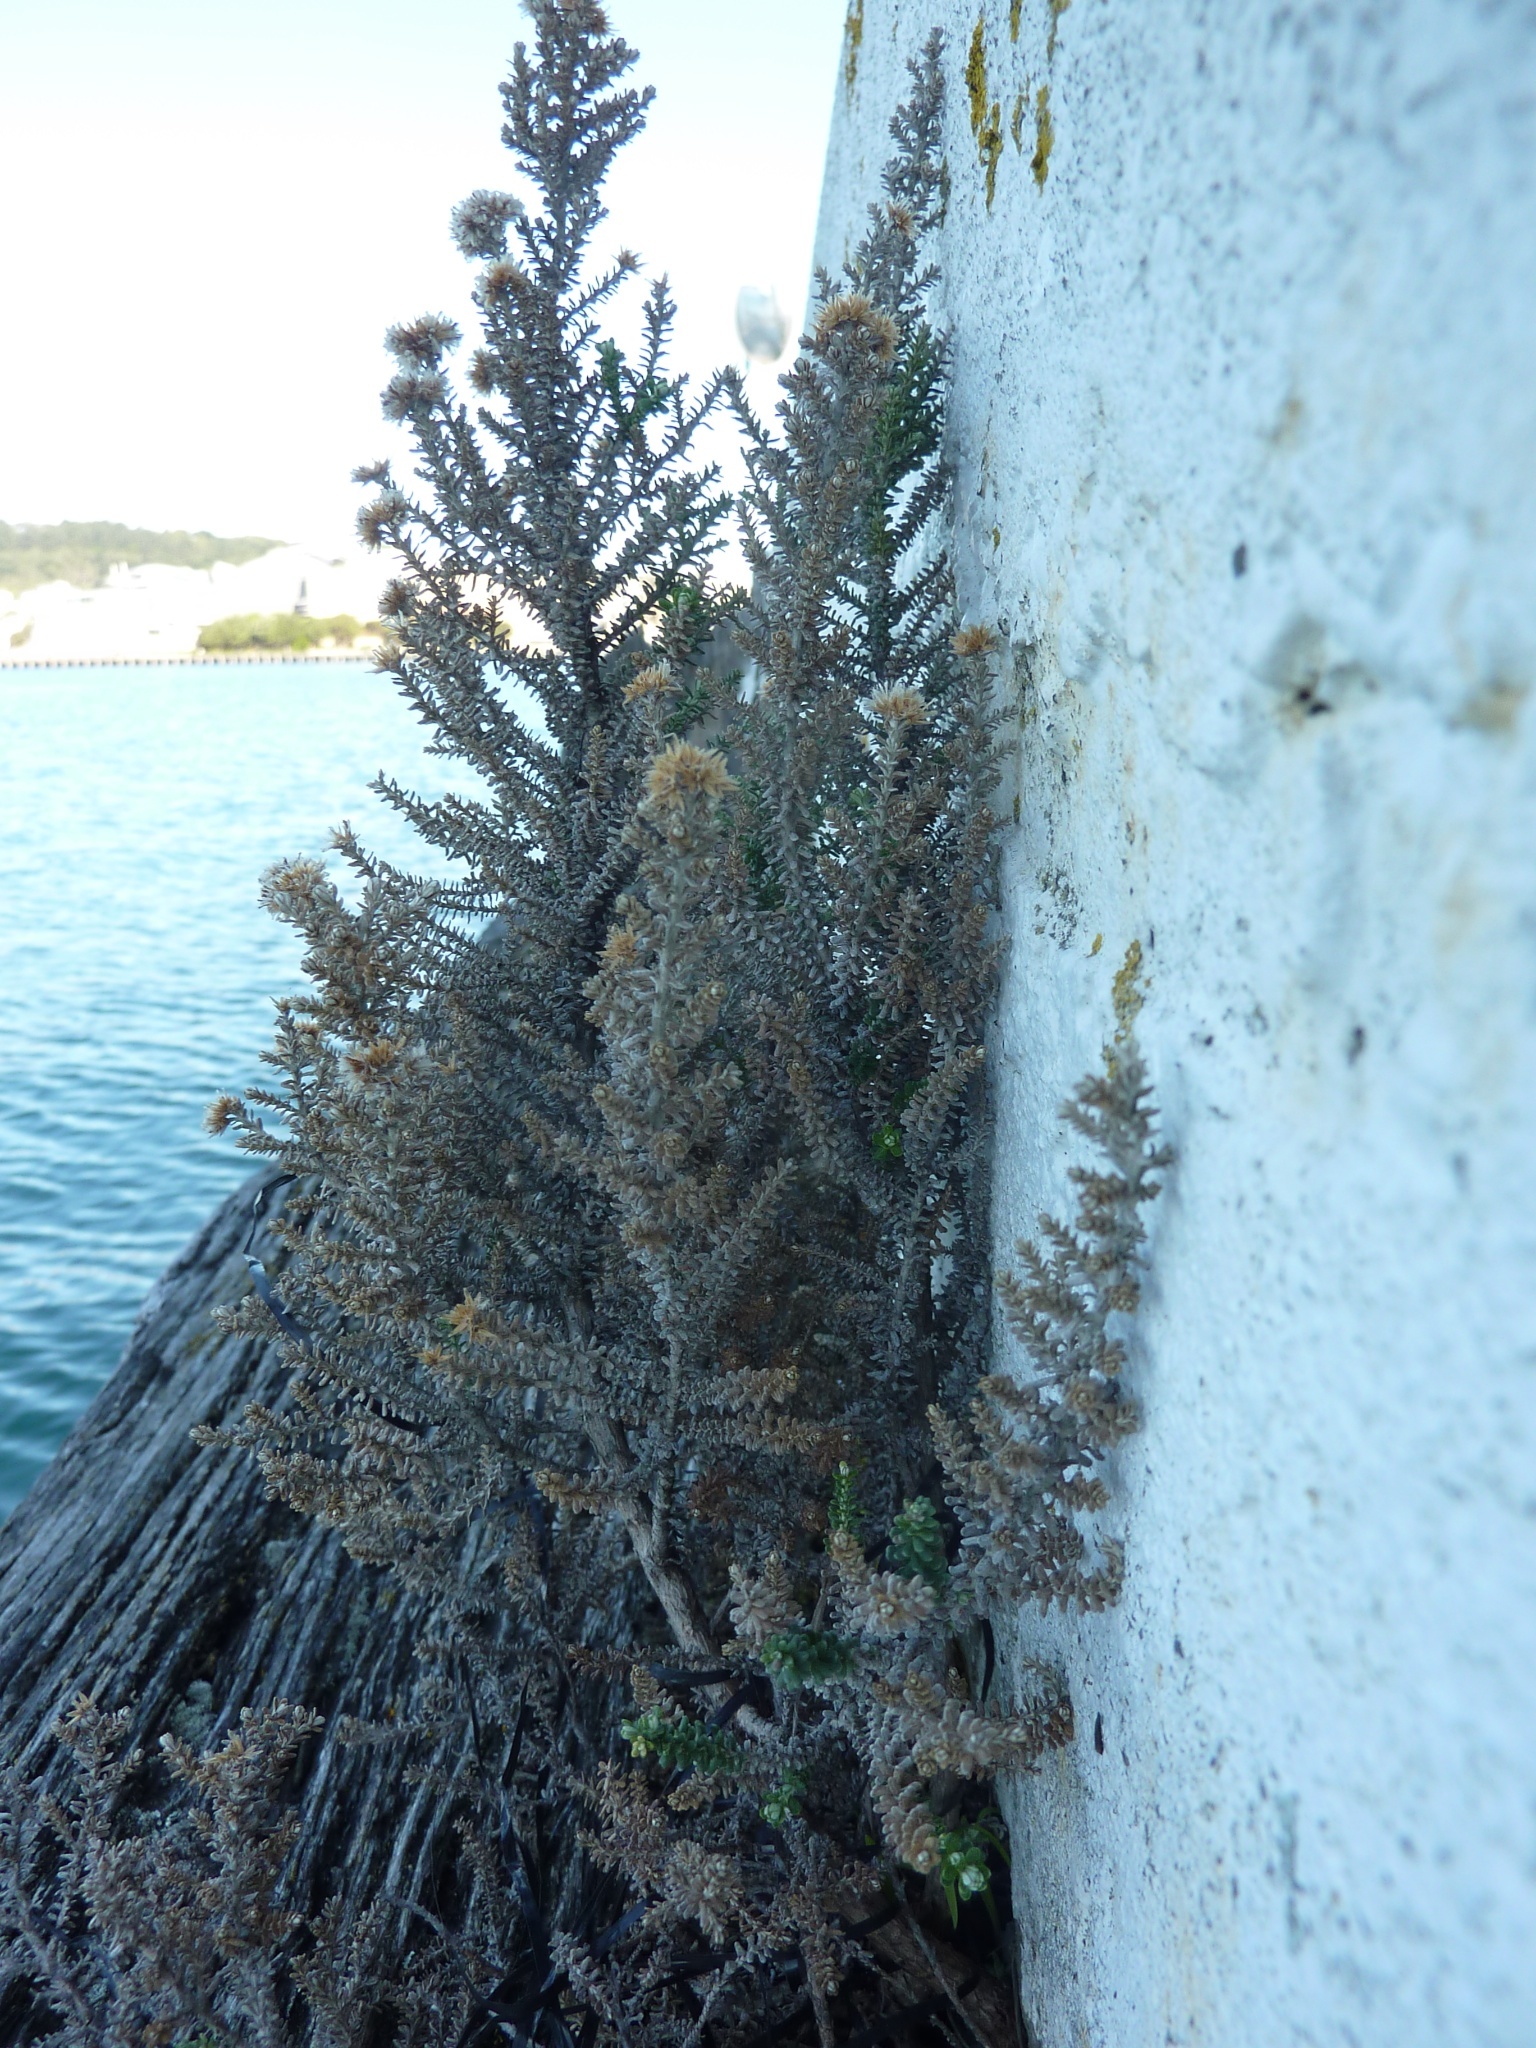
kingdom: Plantae
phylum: Tracheophyta
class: Magnoliopsida
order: Asterales
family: Asteraceae
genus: Ozothamnus
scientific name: Ozothamnus leptophyllus
